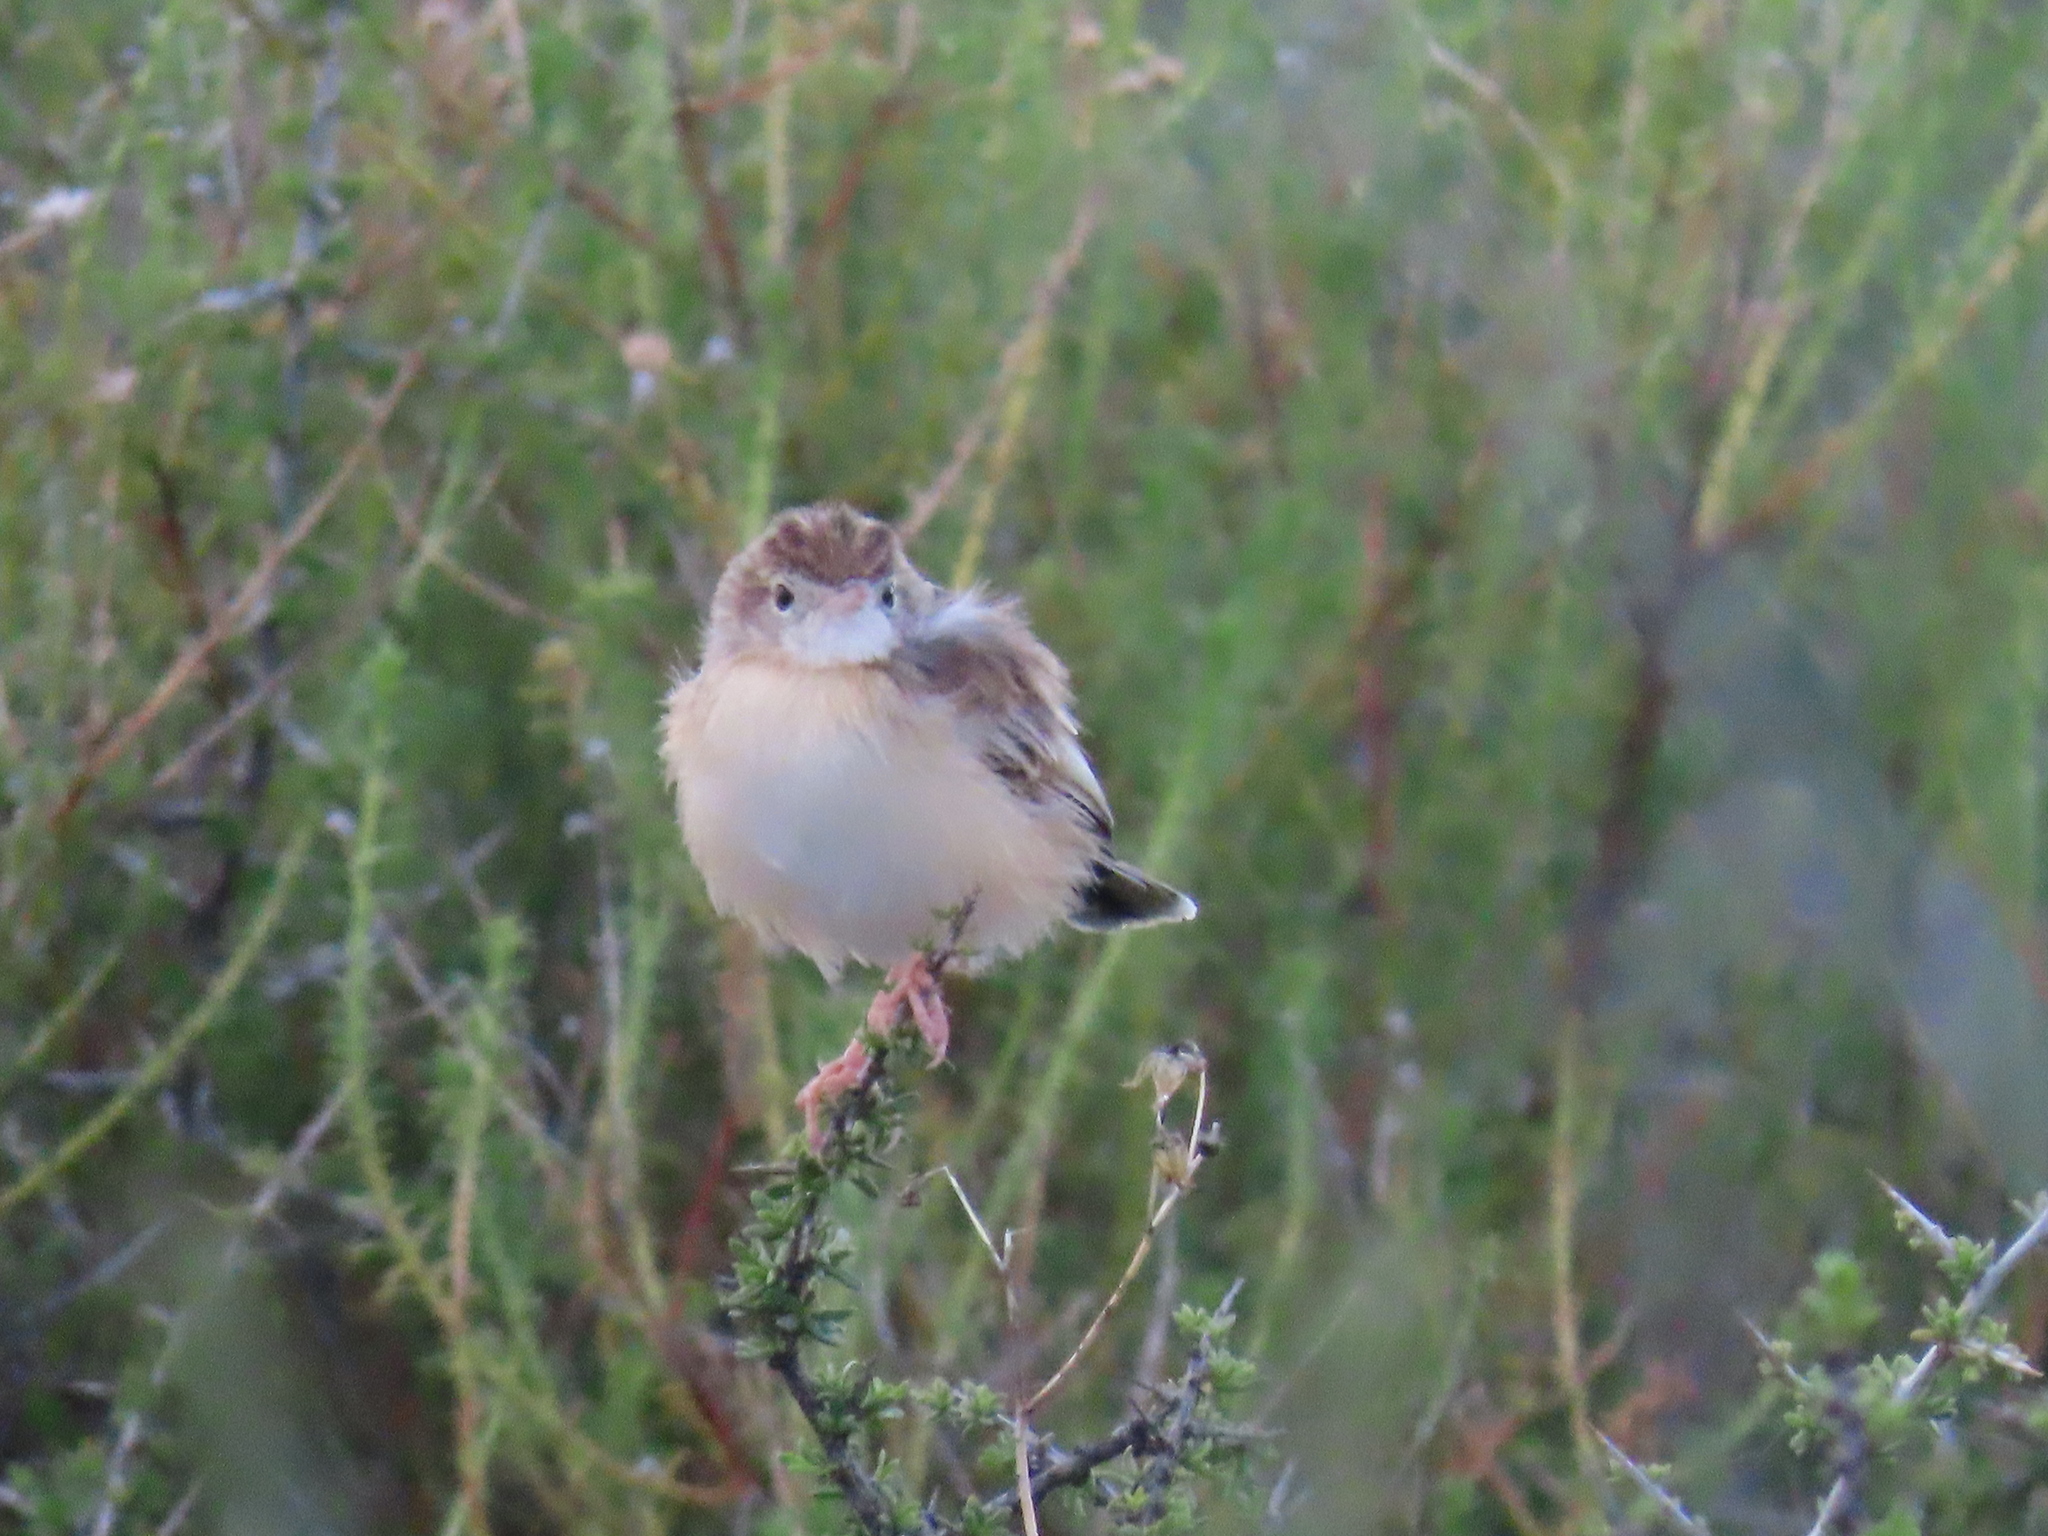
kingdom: Animalia
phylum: Chordata
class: Aves
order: Passeriformes
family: Cisticolidae
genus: Cisticola
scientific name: Cisticola juncidis
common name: Zitting cisticola
